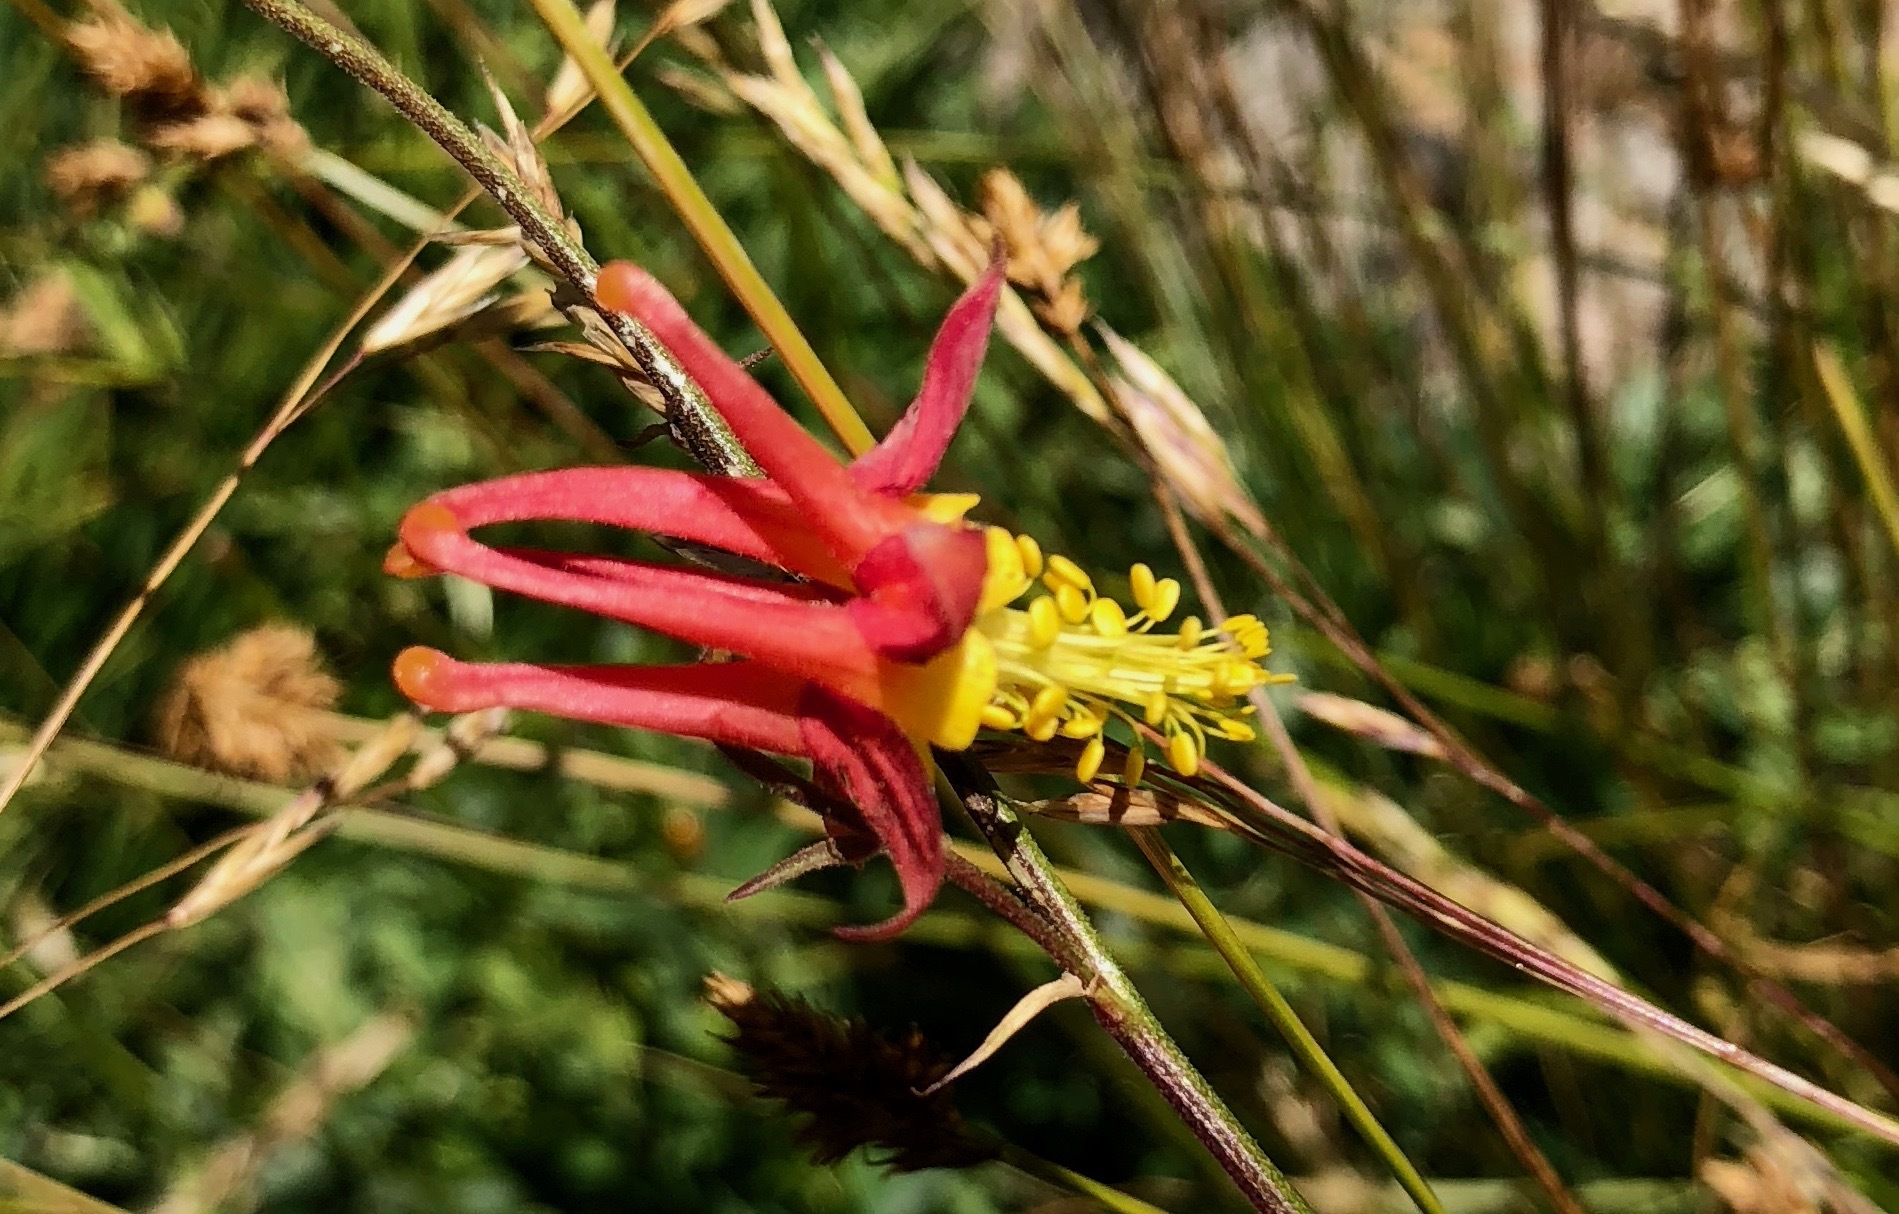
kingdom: Plantae
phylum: Tracheophyta
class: Magnoliopsida
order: Ranunculales
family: Ranunculaceae
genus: Aquilegia
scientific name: Aquilegia formosa
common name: Sitka columbine
